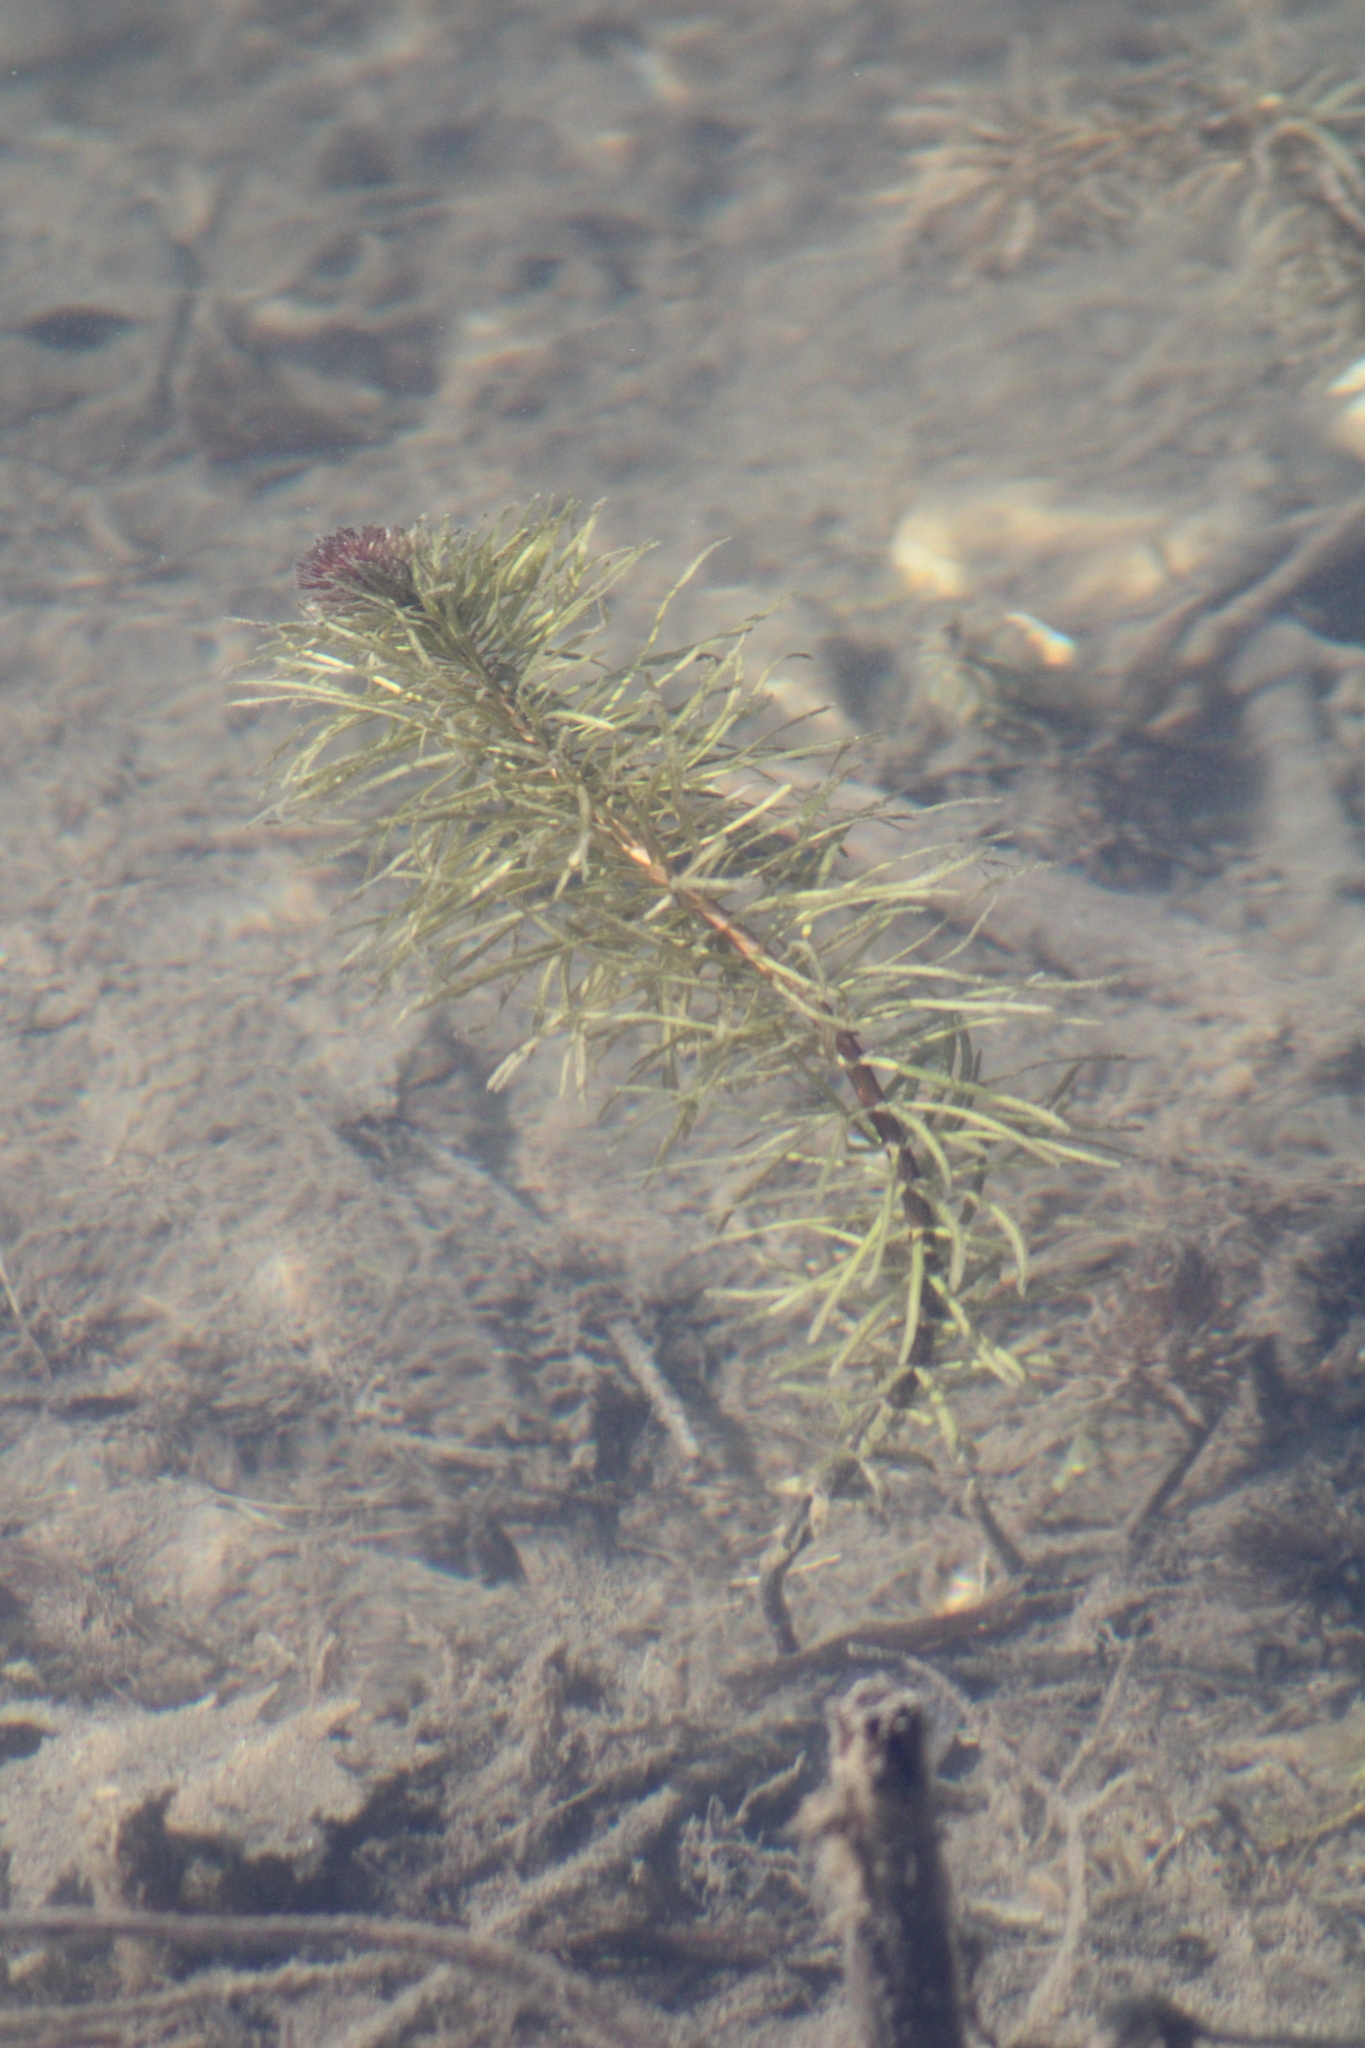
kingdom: Plantae
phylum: Tracheophyta
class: Magnoliopsida
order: Lamiales
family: Plantaginaceae
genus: Hippuris
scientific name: Hippuris vulgaris
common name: Mare's-tail
